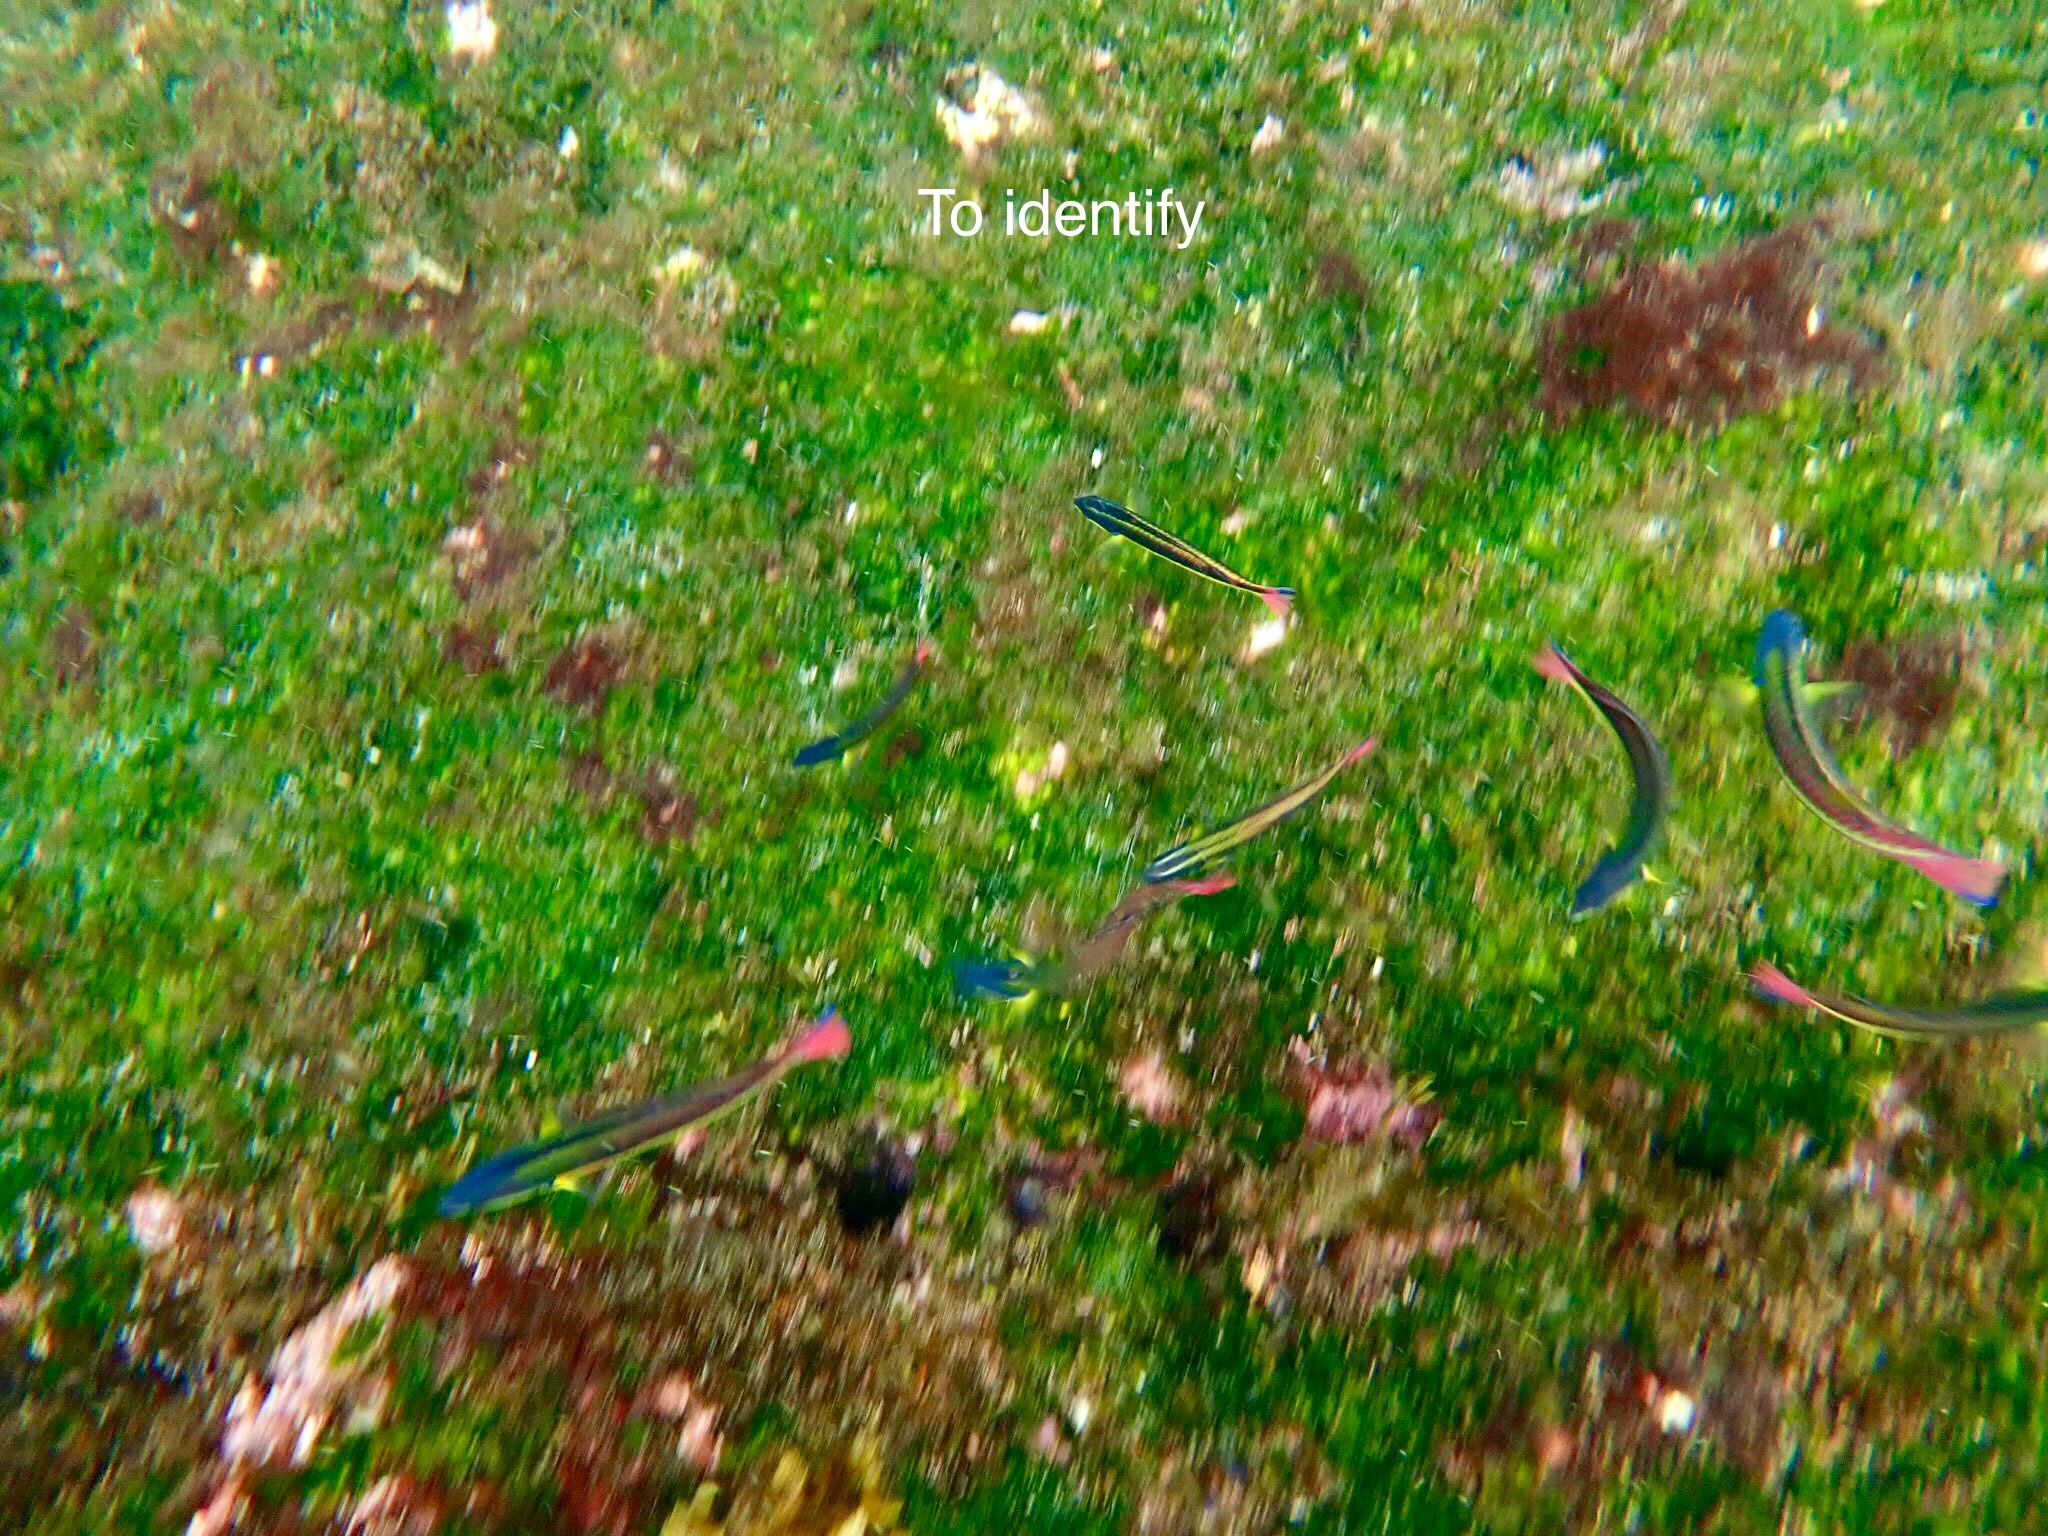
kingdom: Animalia
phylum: Chordata
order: Perciformes
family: Labridae
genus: Thalassoma
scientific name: Thalassoma lucasanum
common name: Cortez rainbow wrasse
